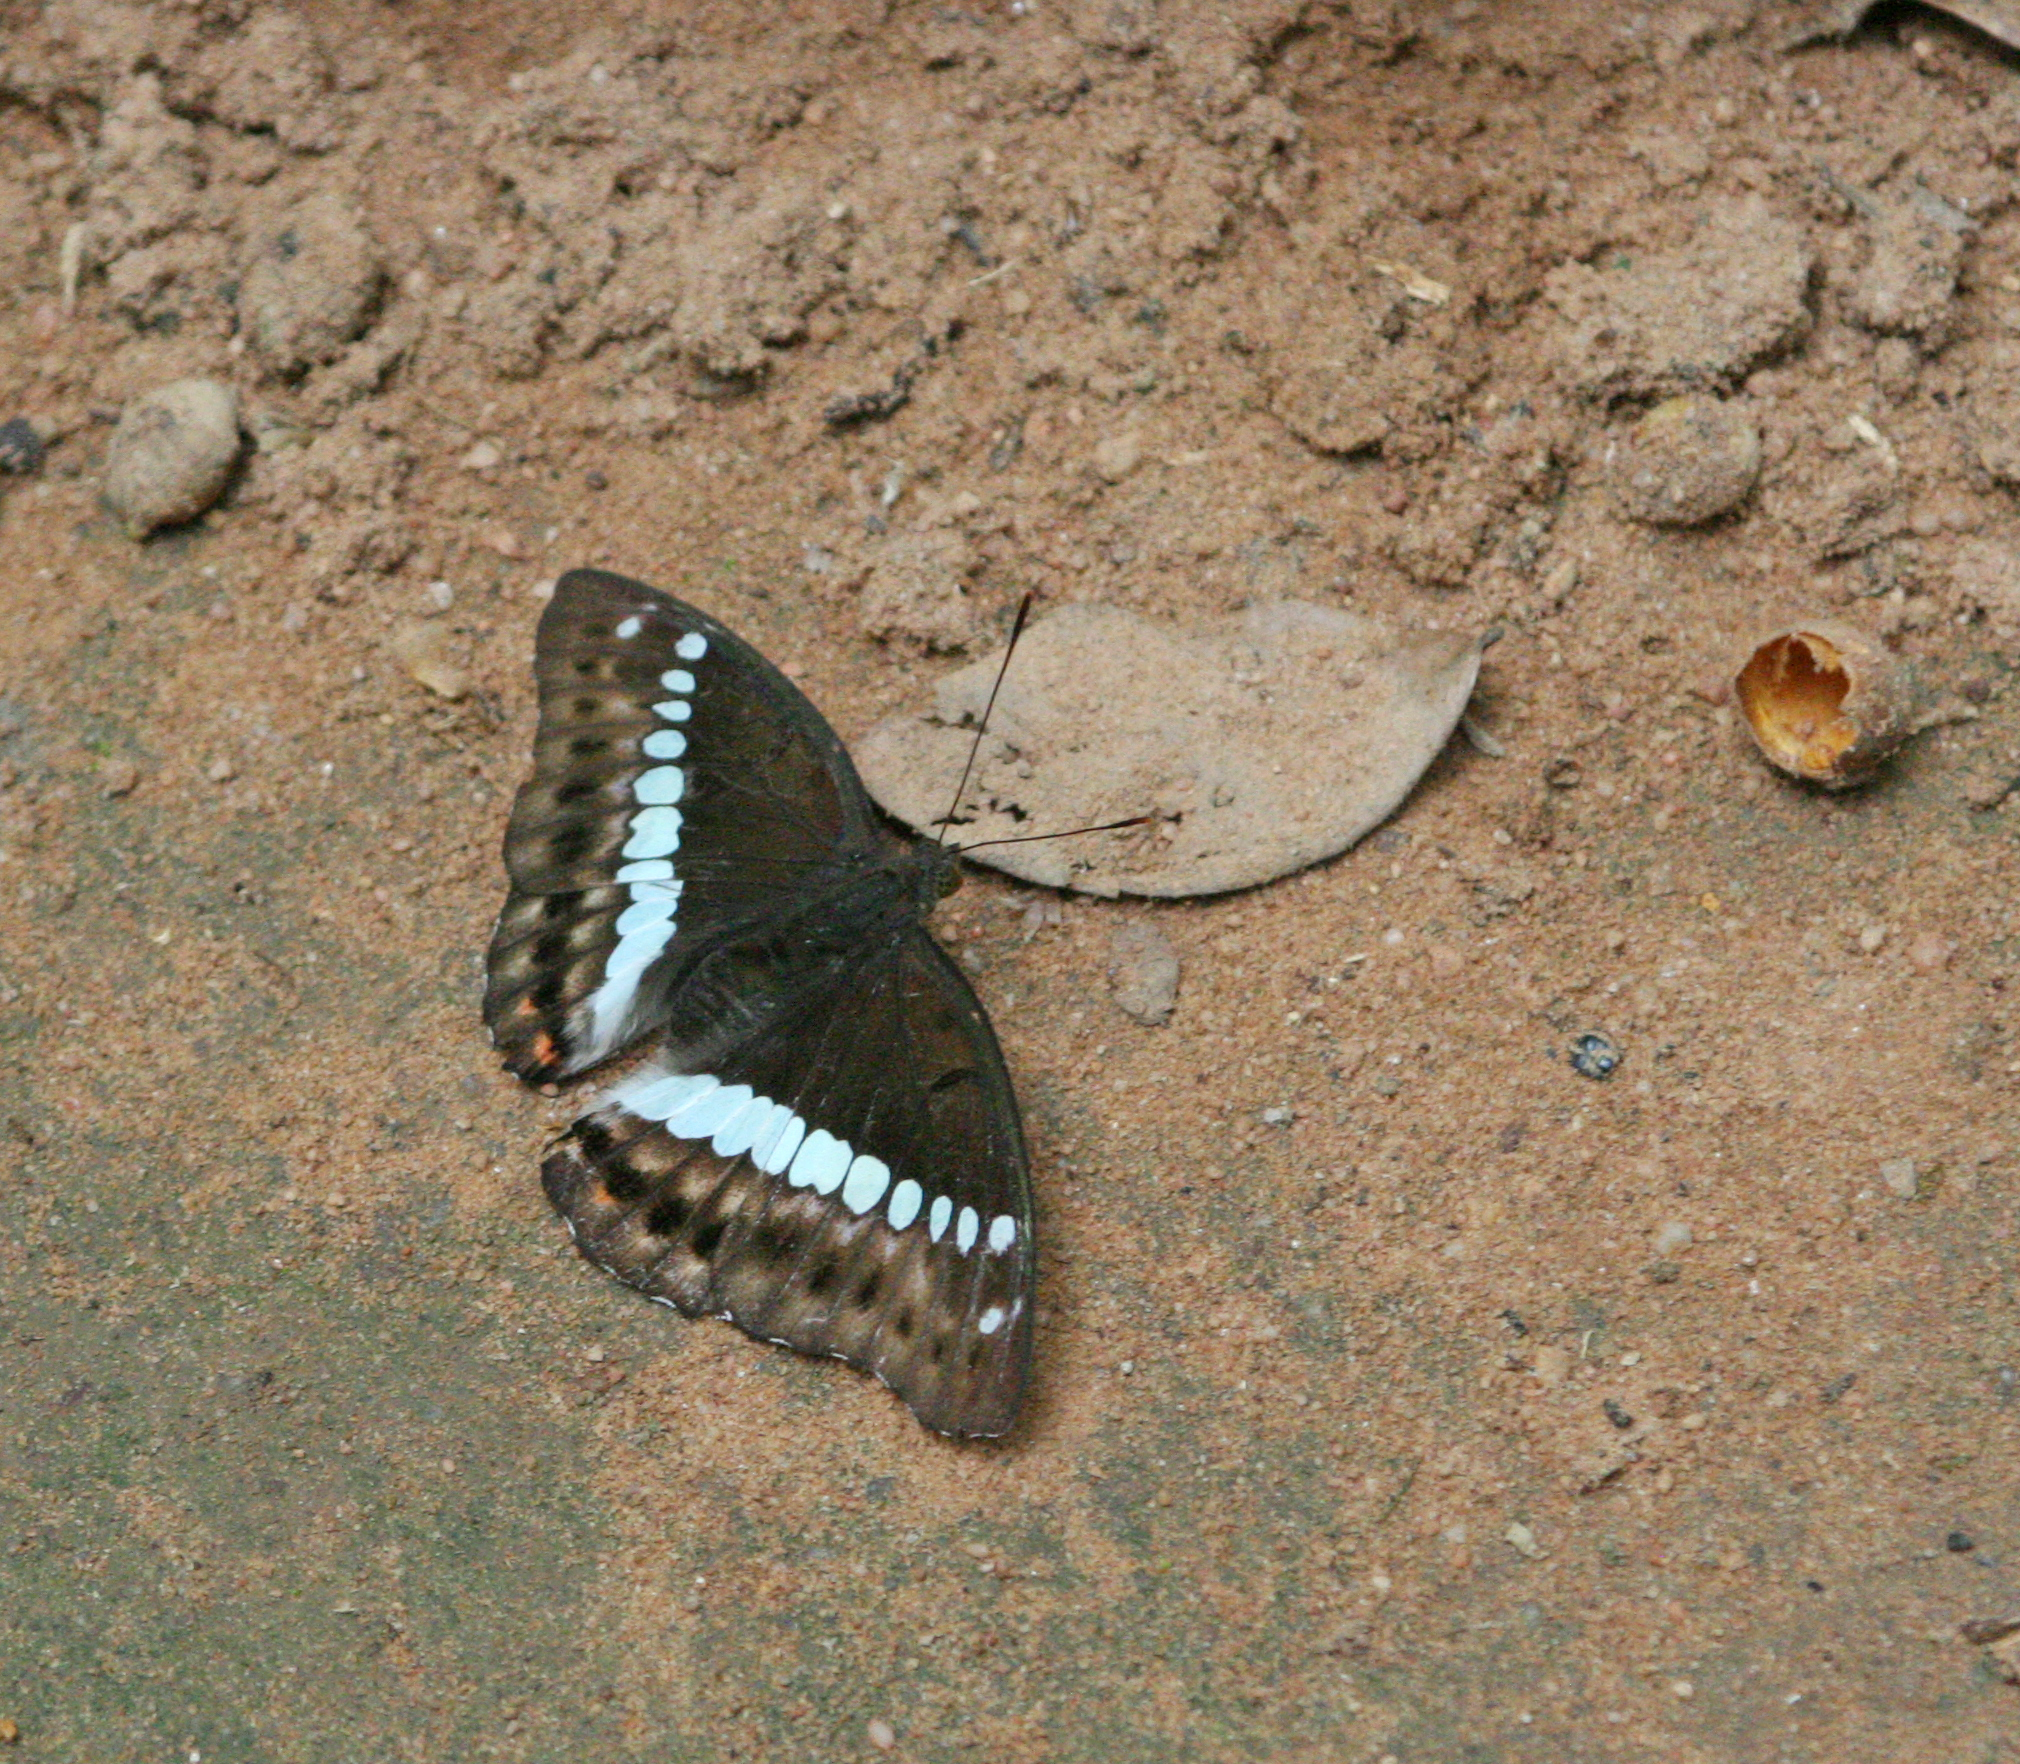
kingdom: Animalia
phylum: Arthropoda
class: Insecta
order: Lepidoptera
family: Nymphalidae
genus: Euthalia
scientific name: Euthalia recta
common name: Redtail marquis
